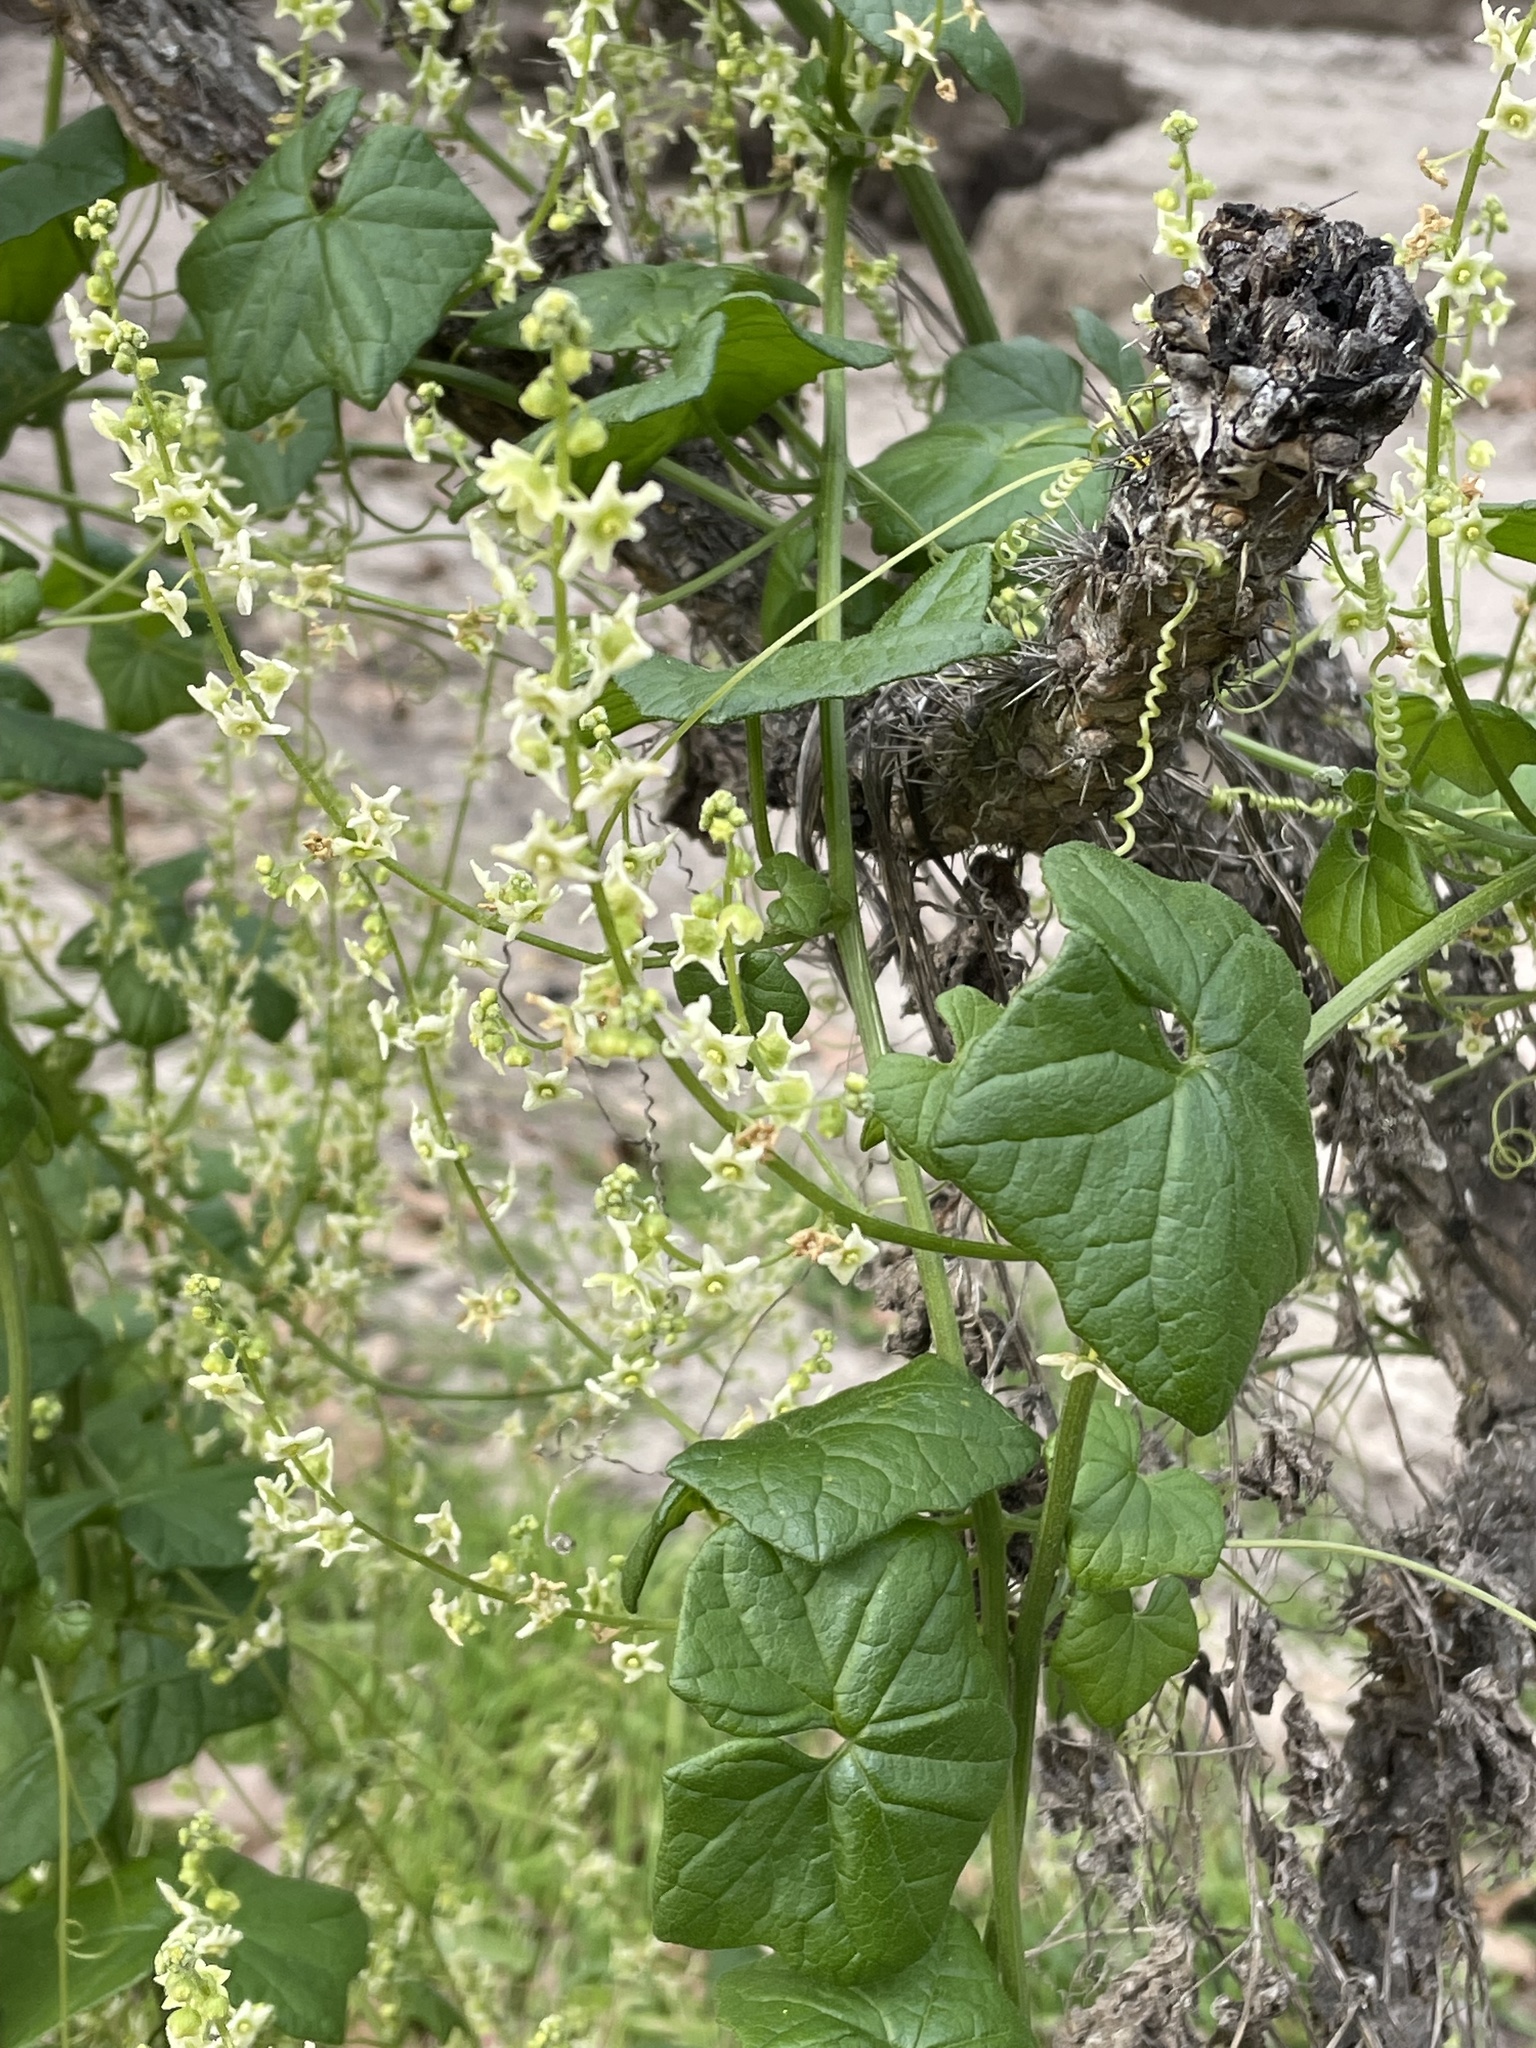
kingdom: Plantae
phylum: Tracheophyta
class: Magnoliopsida
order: Cucurbitales
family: Cucurbitaceae
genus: Marah
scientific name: Marah fabacea
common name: California manroot
